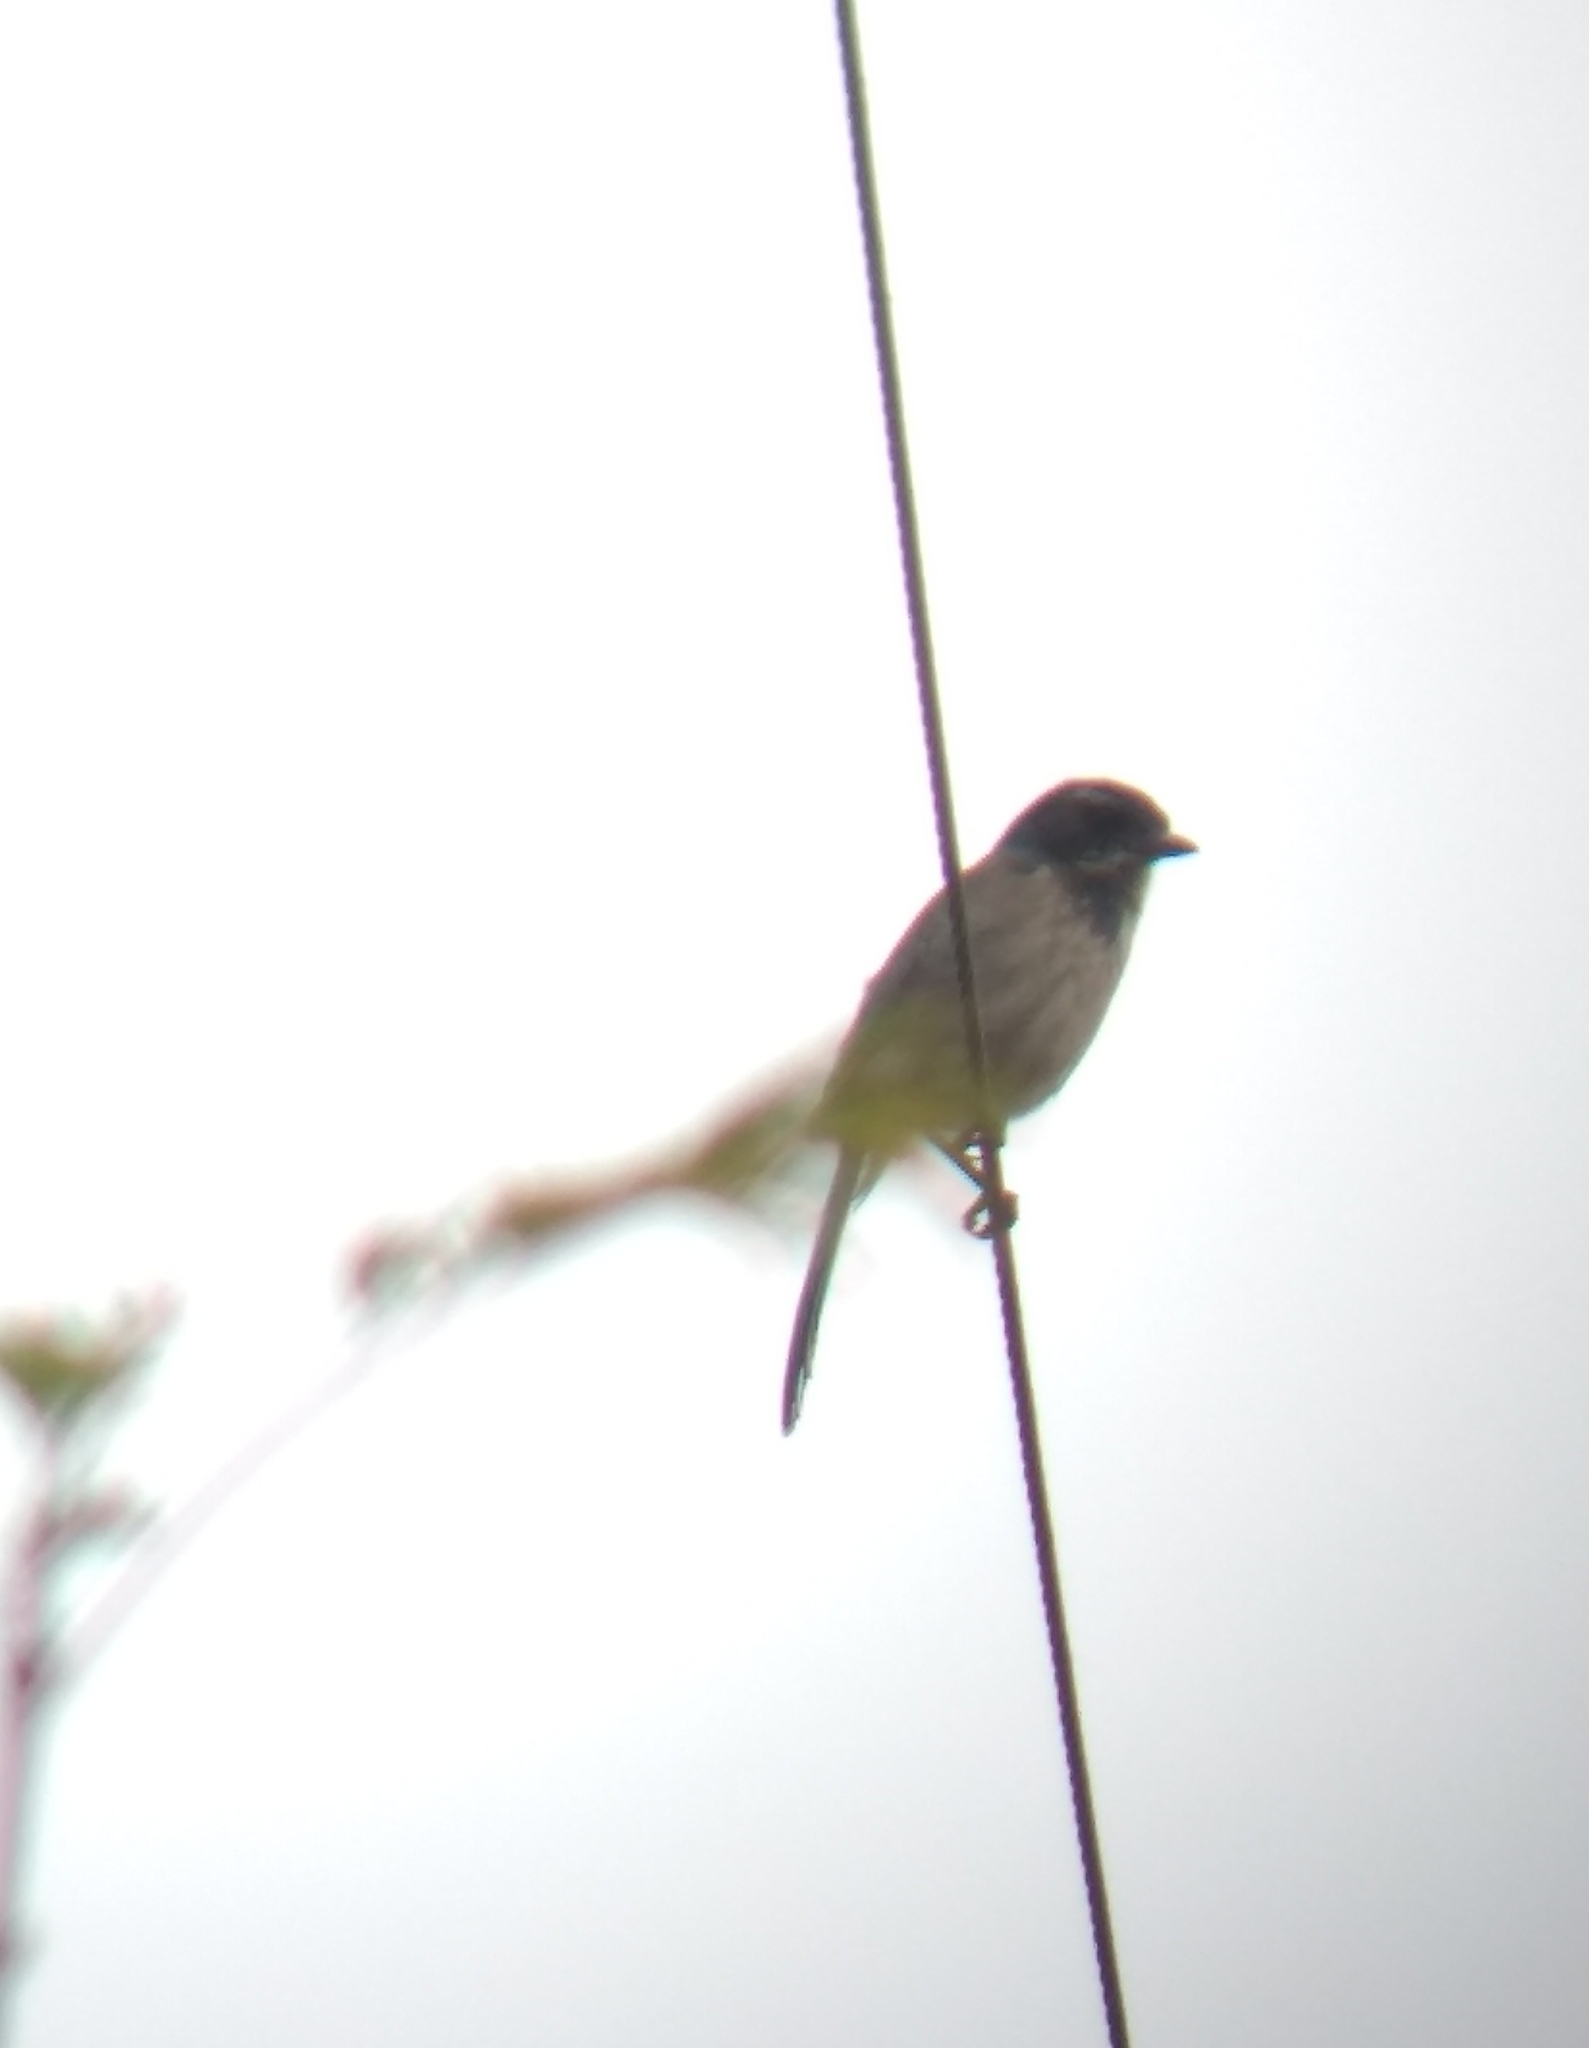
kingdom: Animalia
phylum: Chordata
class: Aves
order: Passeriformes
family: Corvidae
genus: Aphelocoma
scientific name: Aphelocoma californica
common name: California scrub-jay
